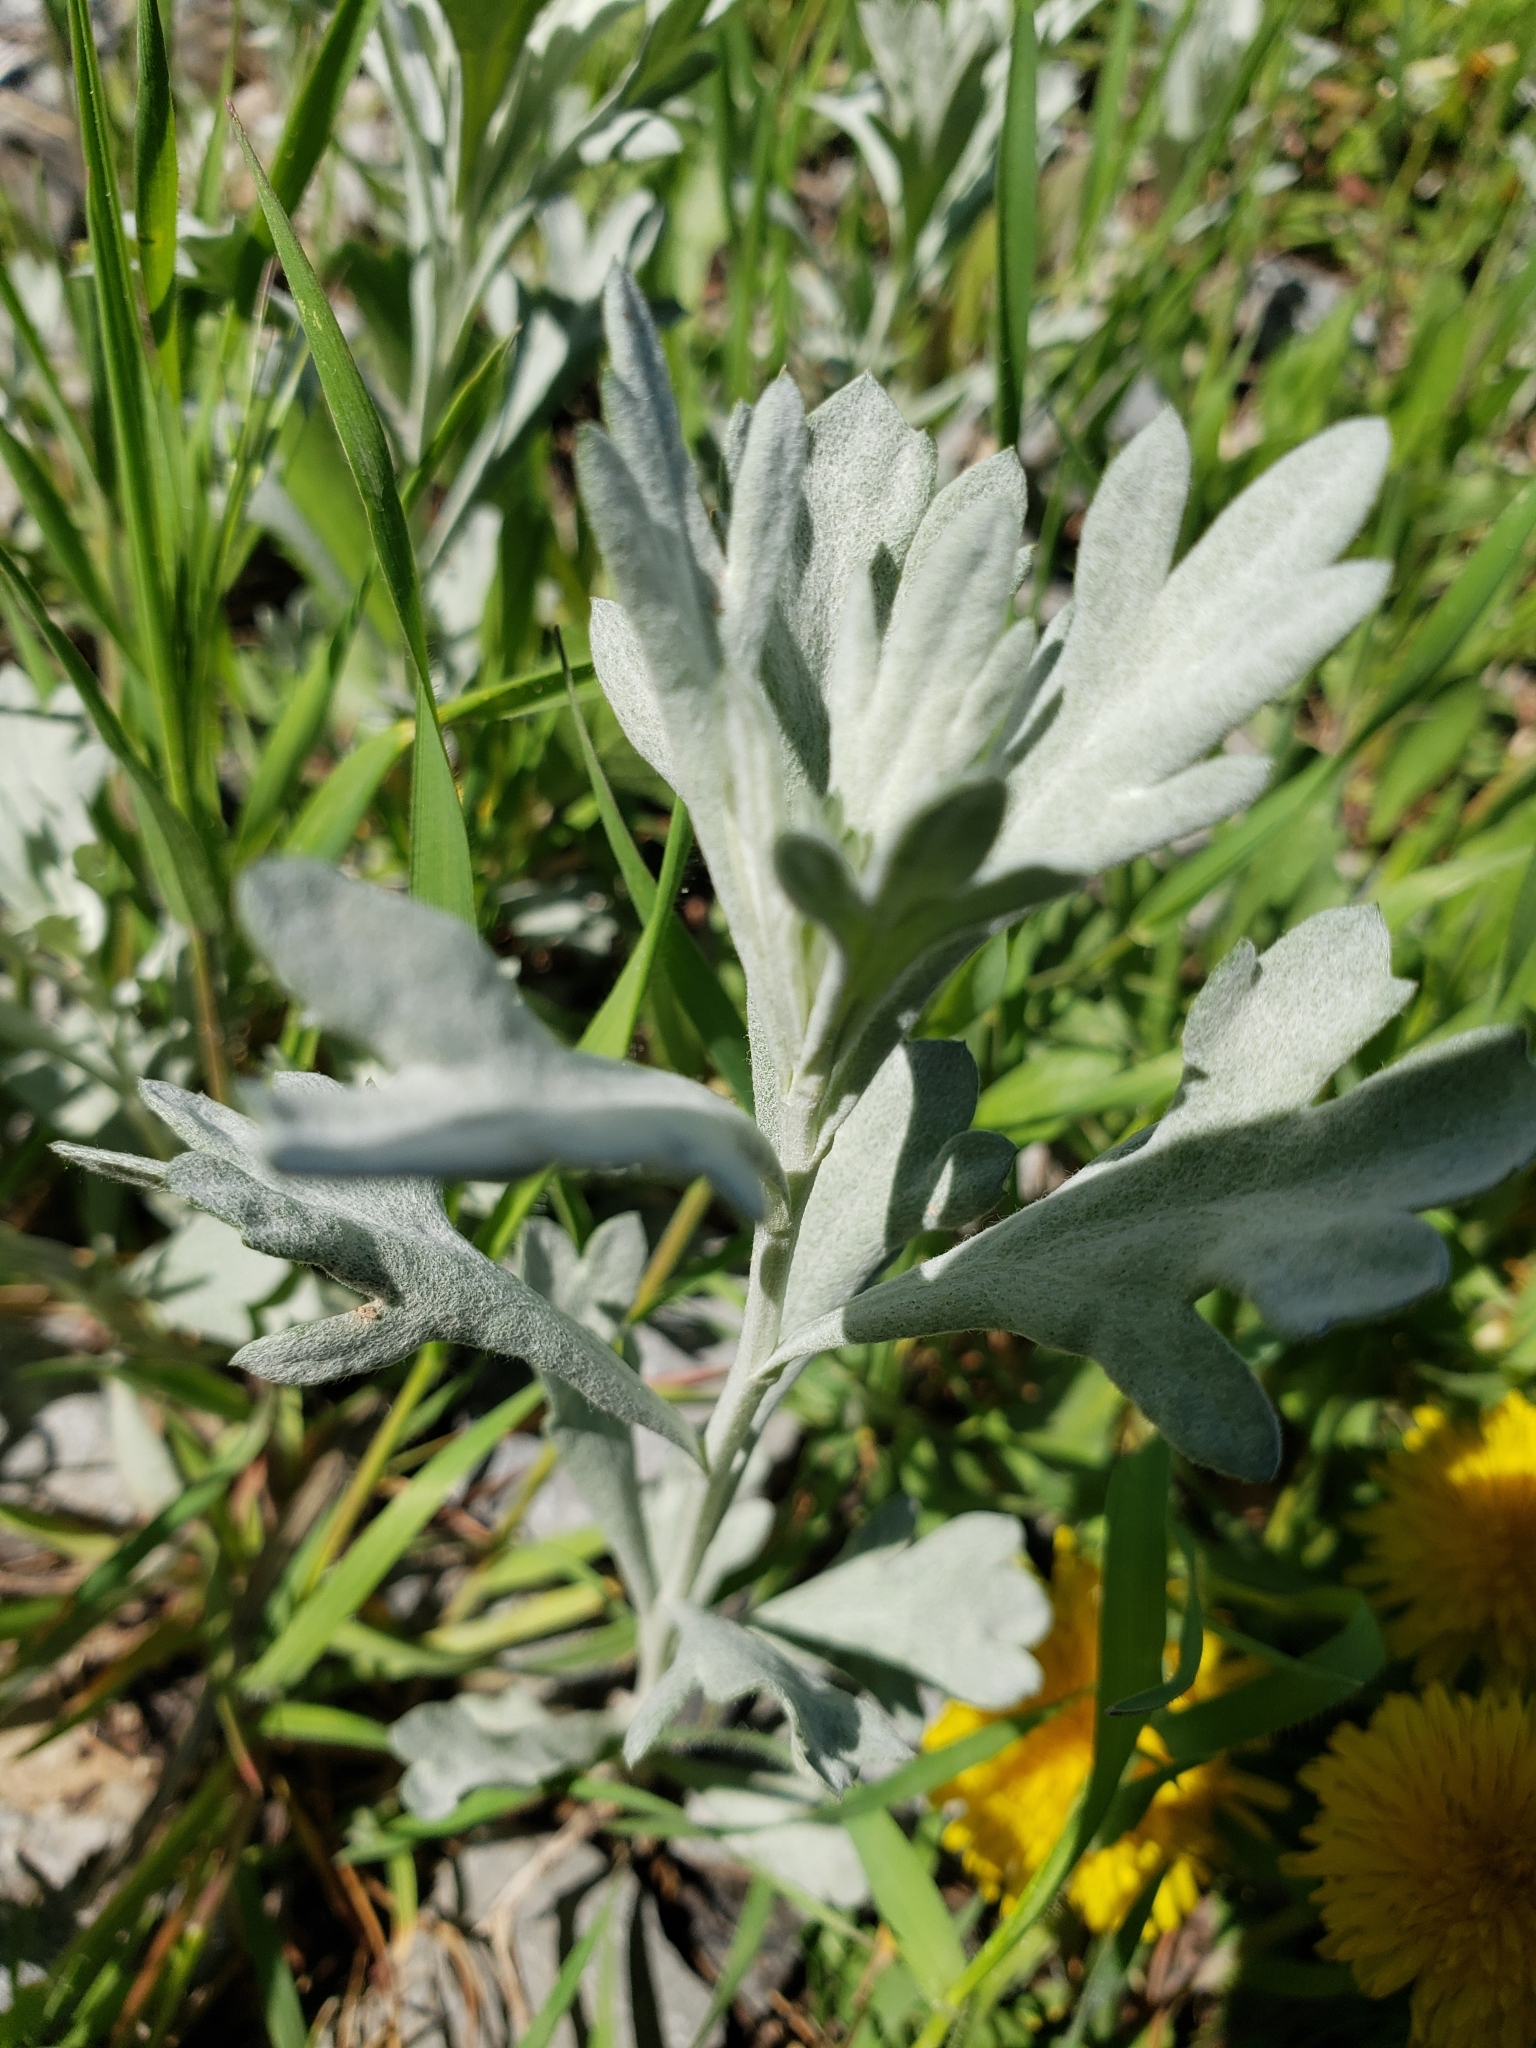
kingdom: Plantae
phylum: Tracheophyta
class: Magnoliopsida
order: Asterales
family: Asteraceae
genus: Artemisia
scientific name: Artemisia ludoviciana
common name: Western mugwort
